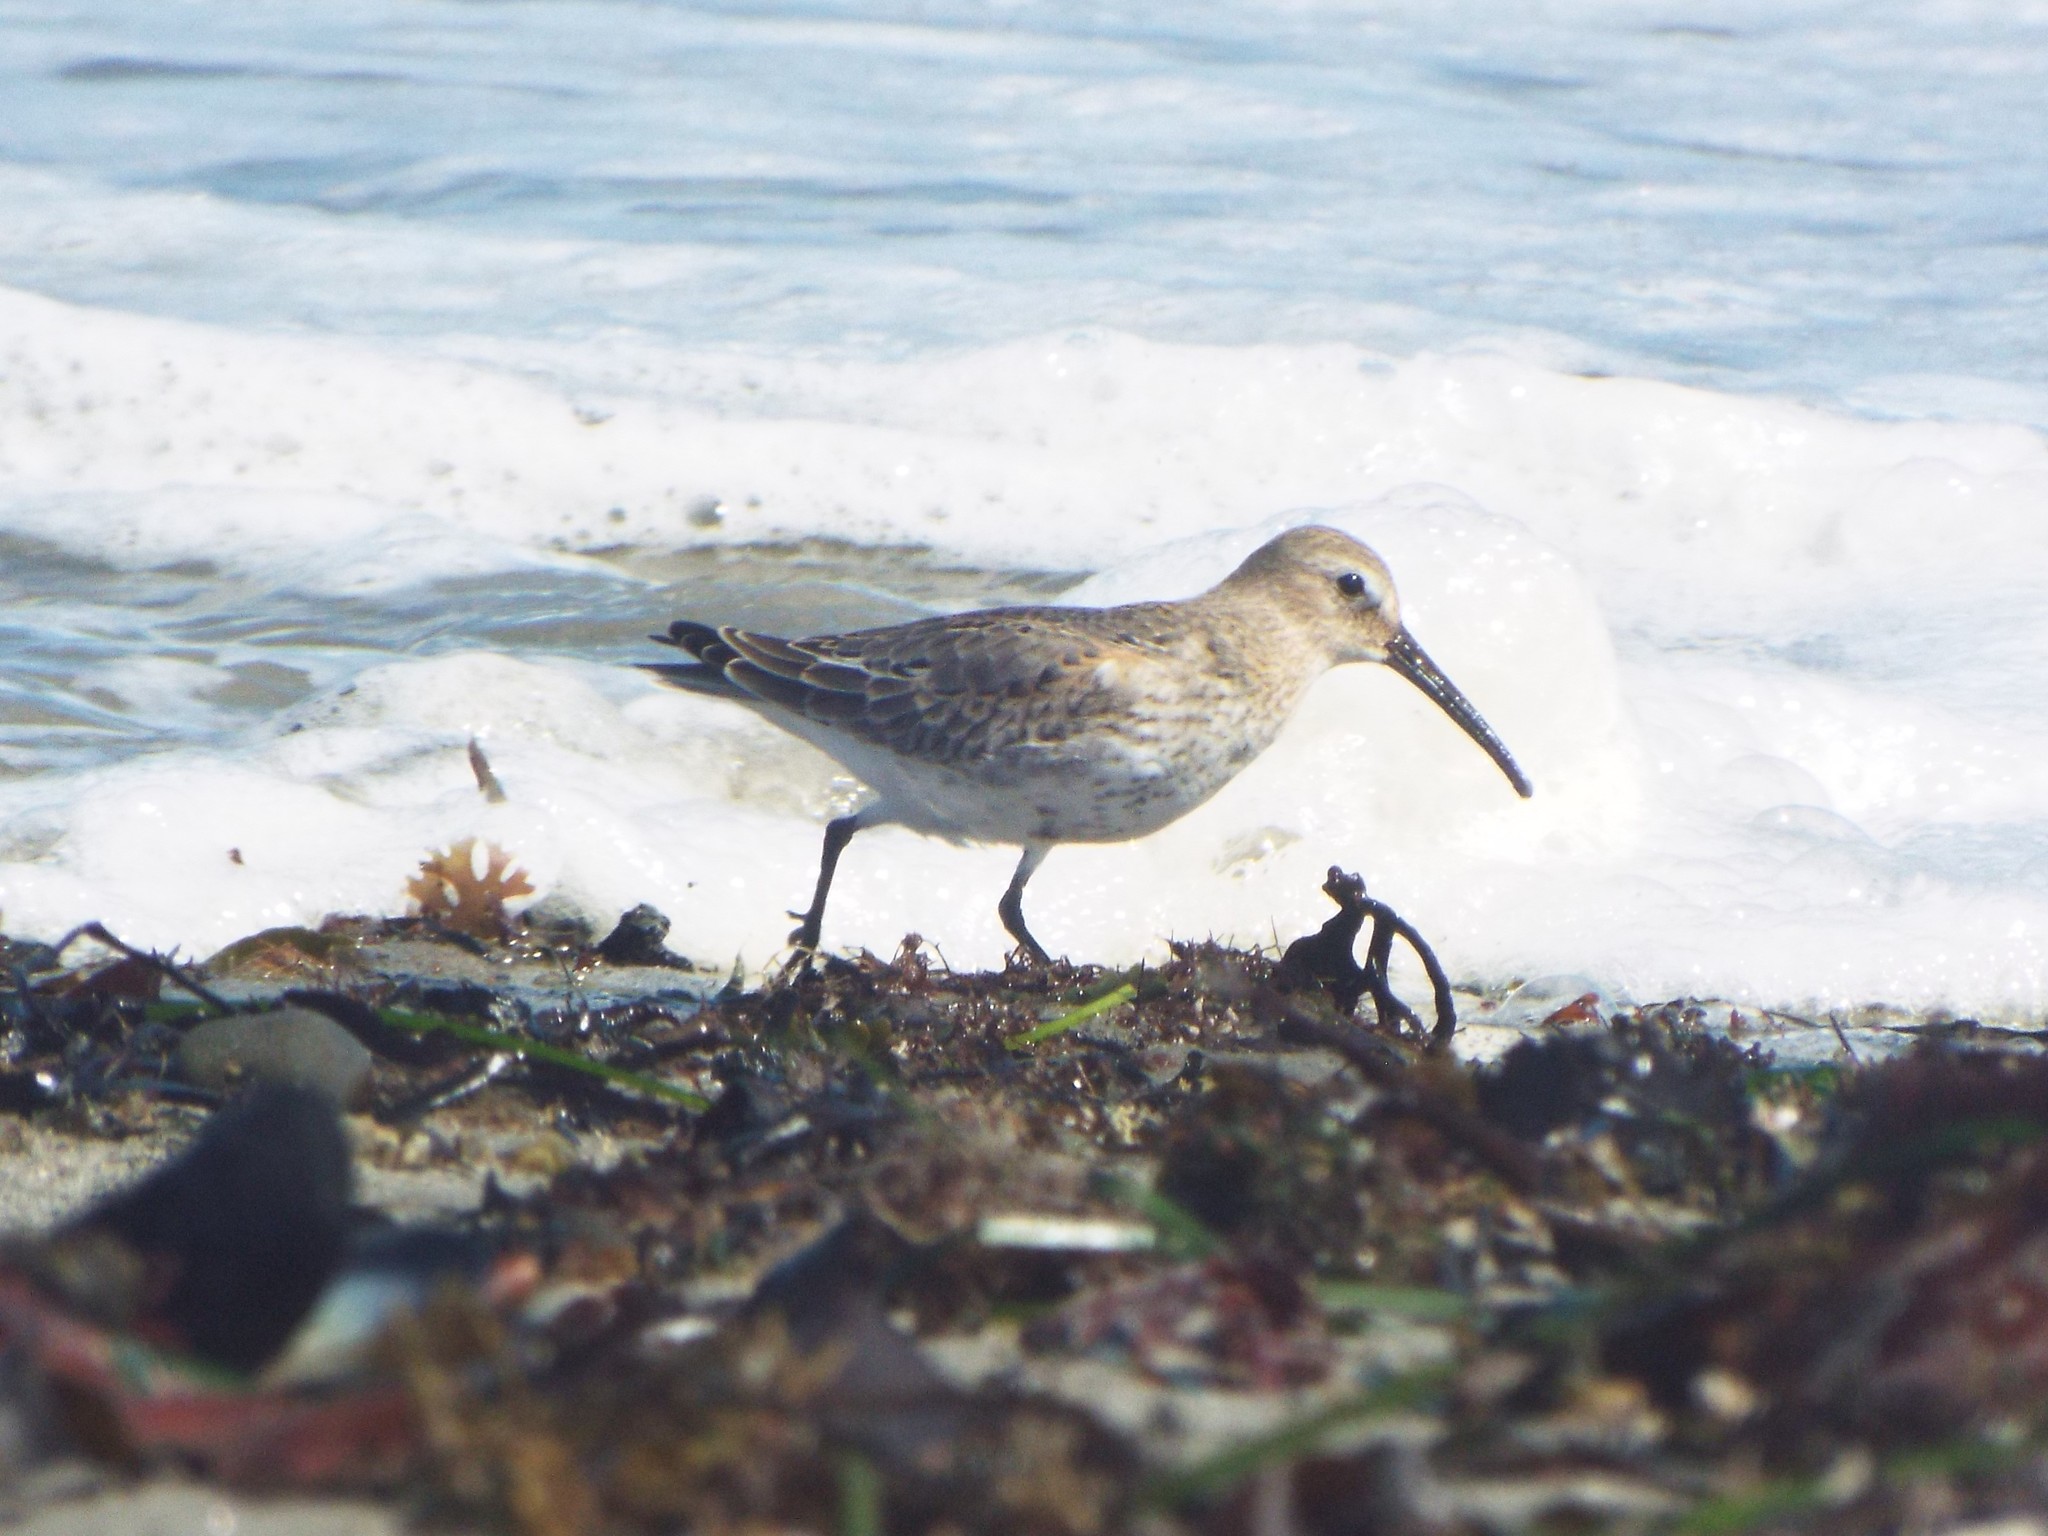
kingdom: Animalia
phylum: Chordata
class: Aves
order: Charadriiformes
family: Scolopacidae
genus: Calidris
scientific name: Calidris alpina
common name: Dunlin
